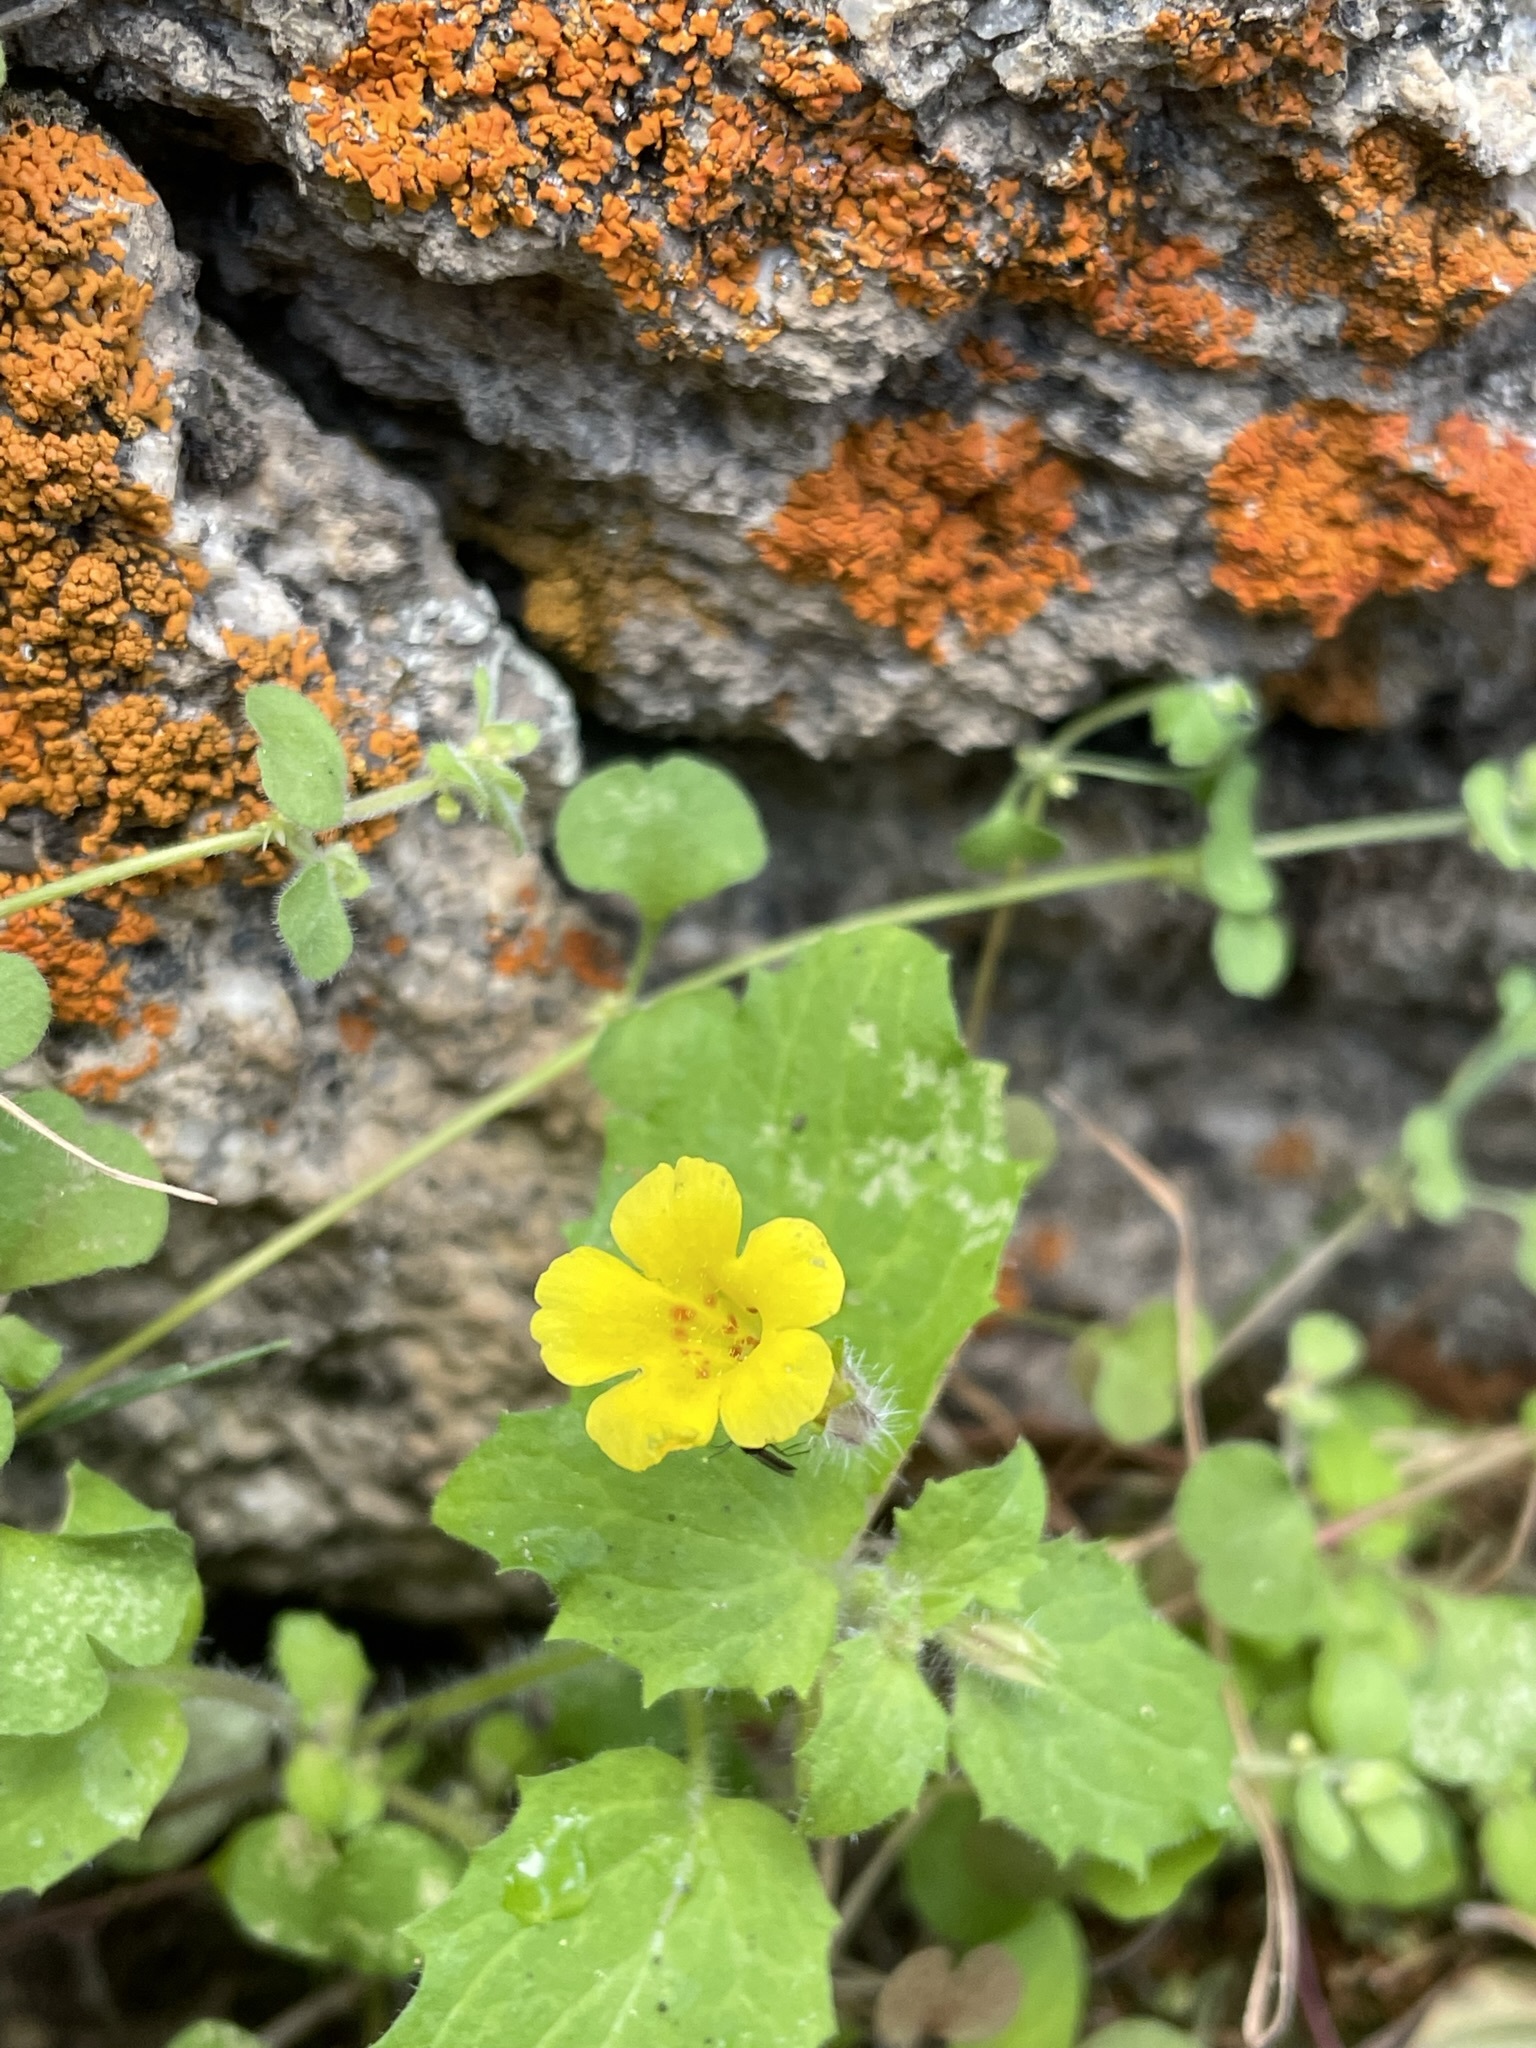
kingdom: Plantae
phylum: Tracheophyta
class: Magnoliopsida
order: Lamiales
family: Phrymaceae
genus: Erythranthe
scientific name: Erythranthe geniculata
